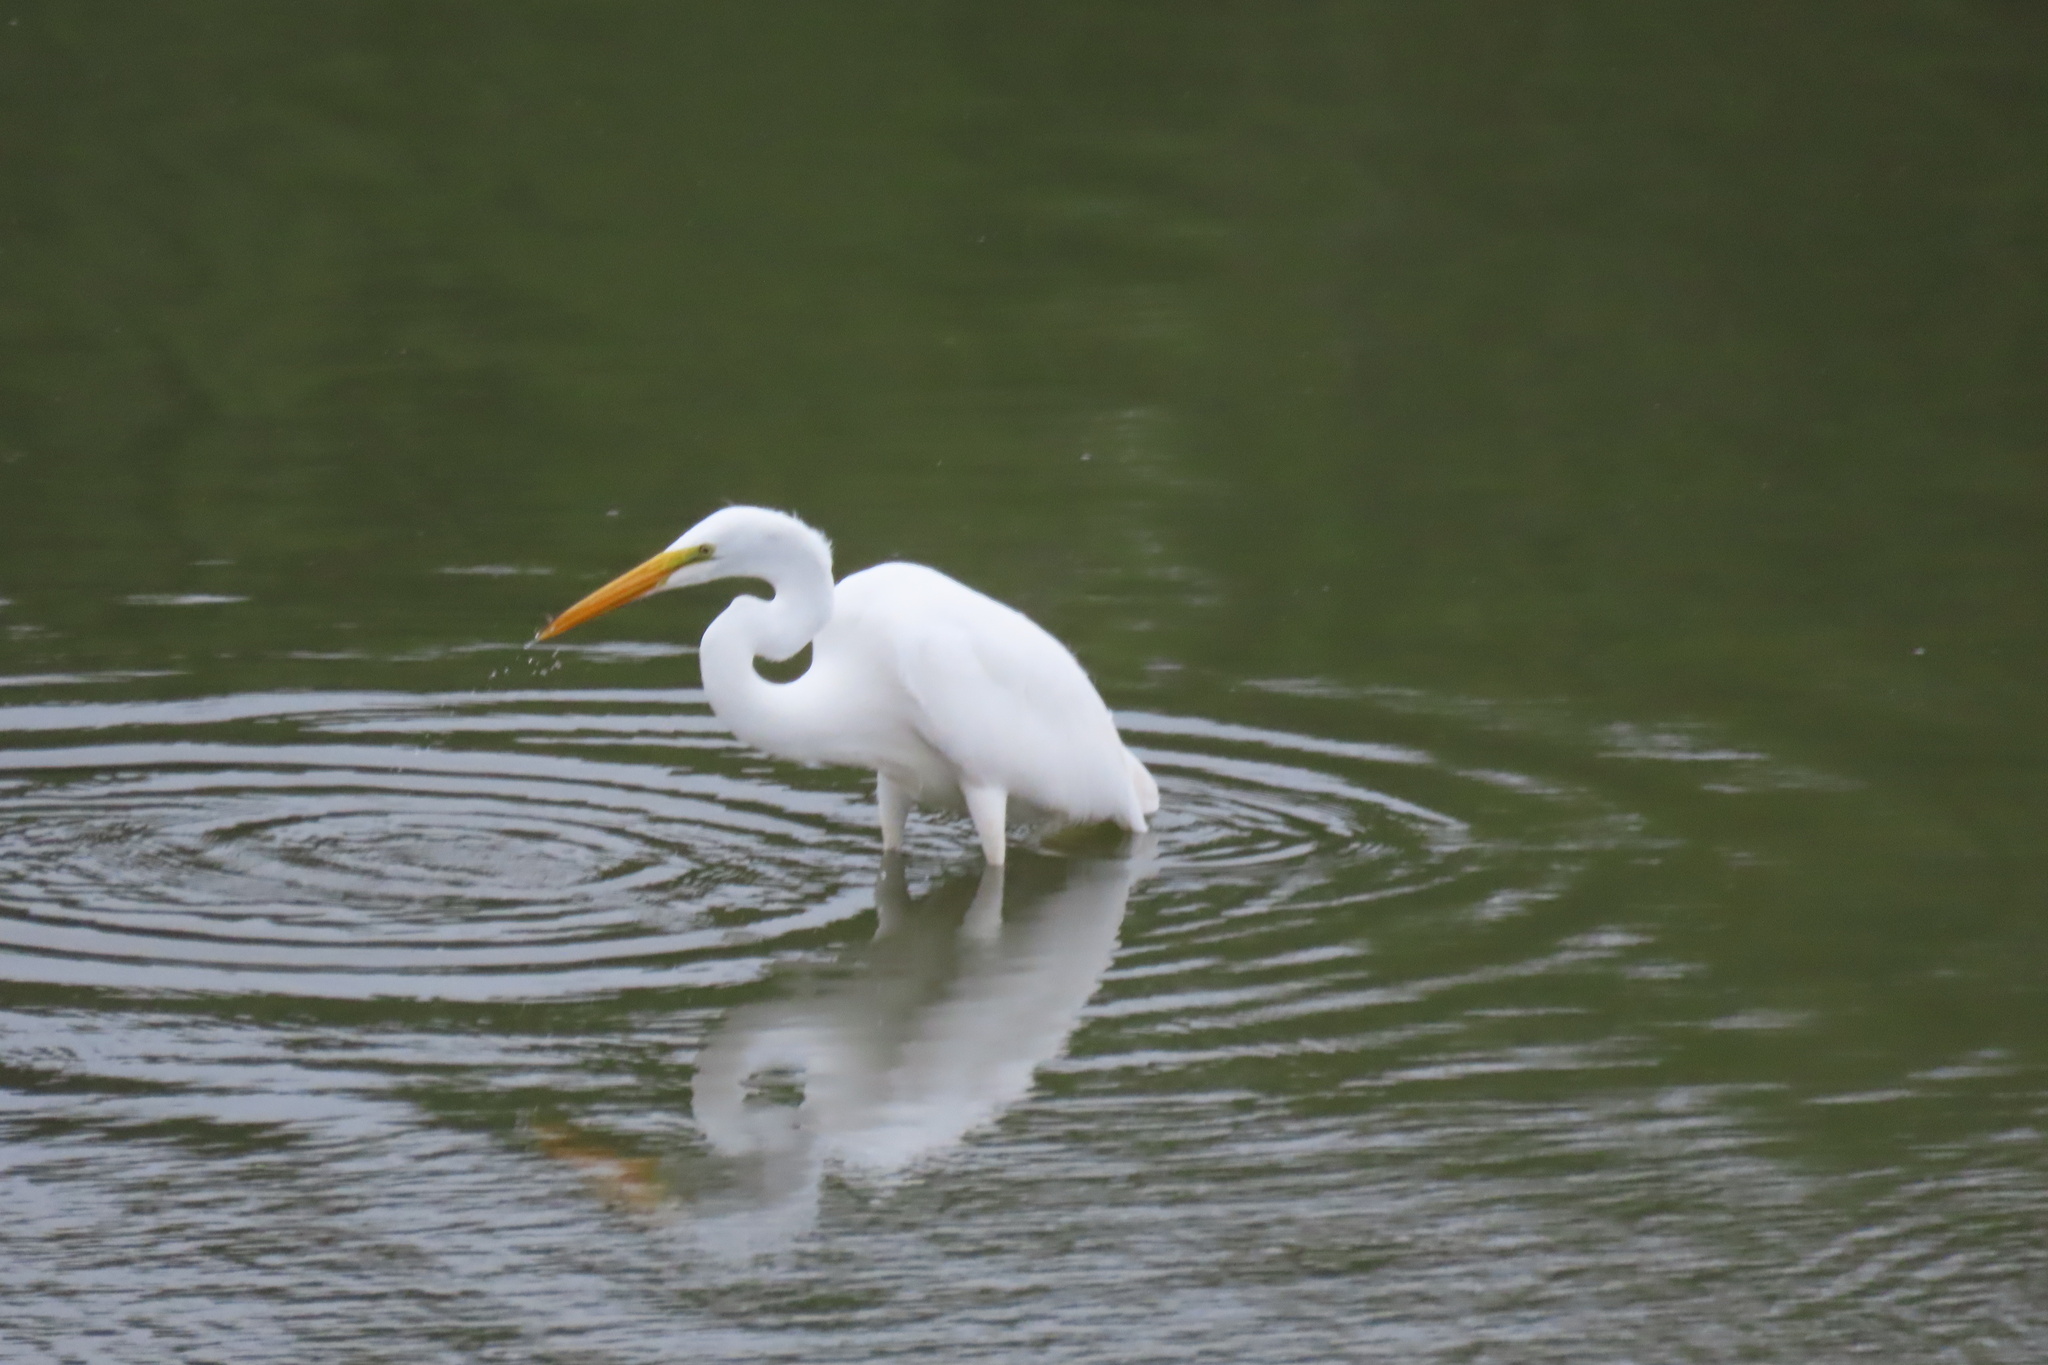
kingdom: Animalia
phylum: Chordata
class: Aves
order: Pelecaniformes
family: Ardeidae
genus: Ardea
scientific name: Ardea alba
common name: Great egret
